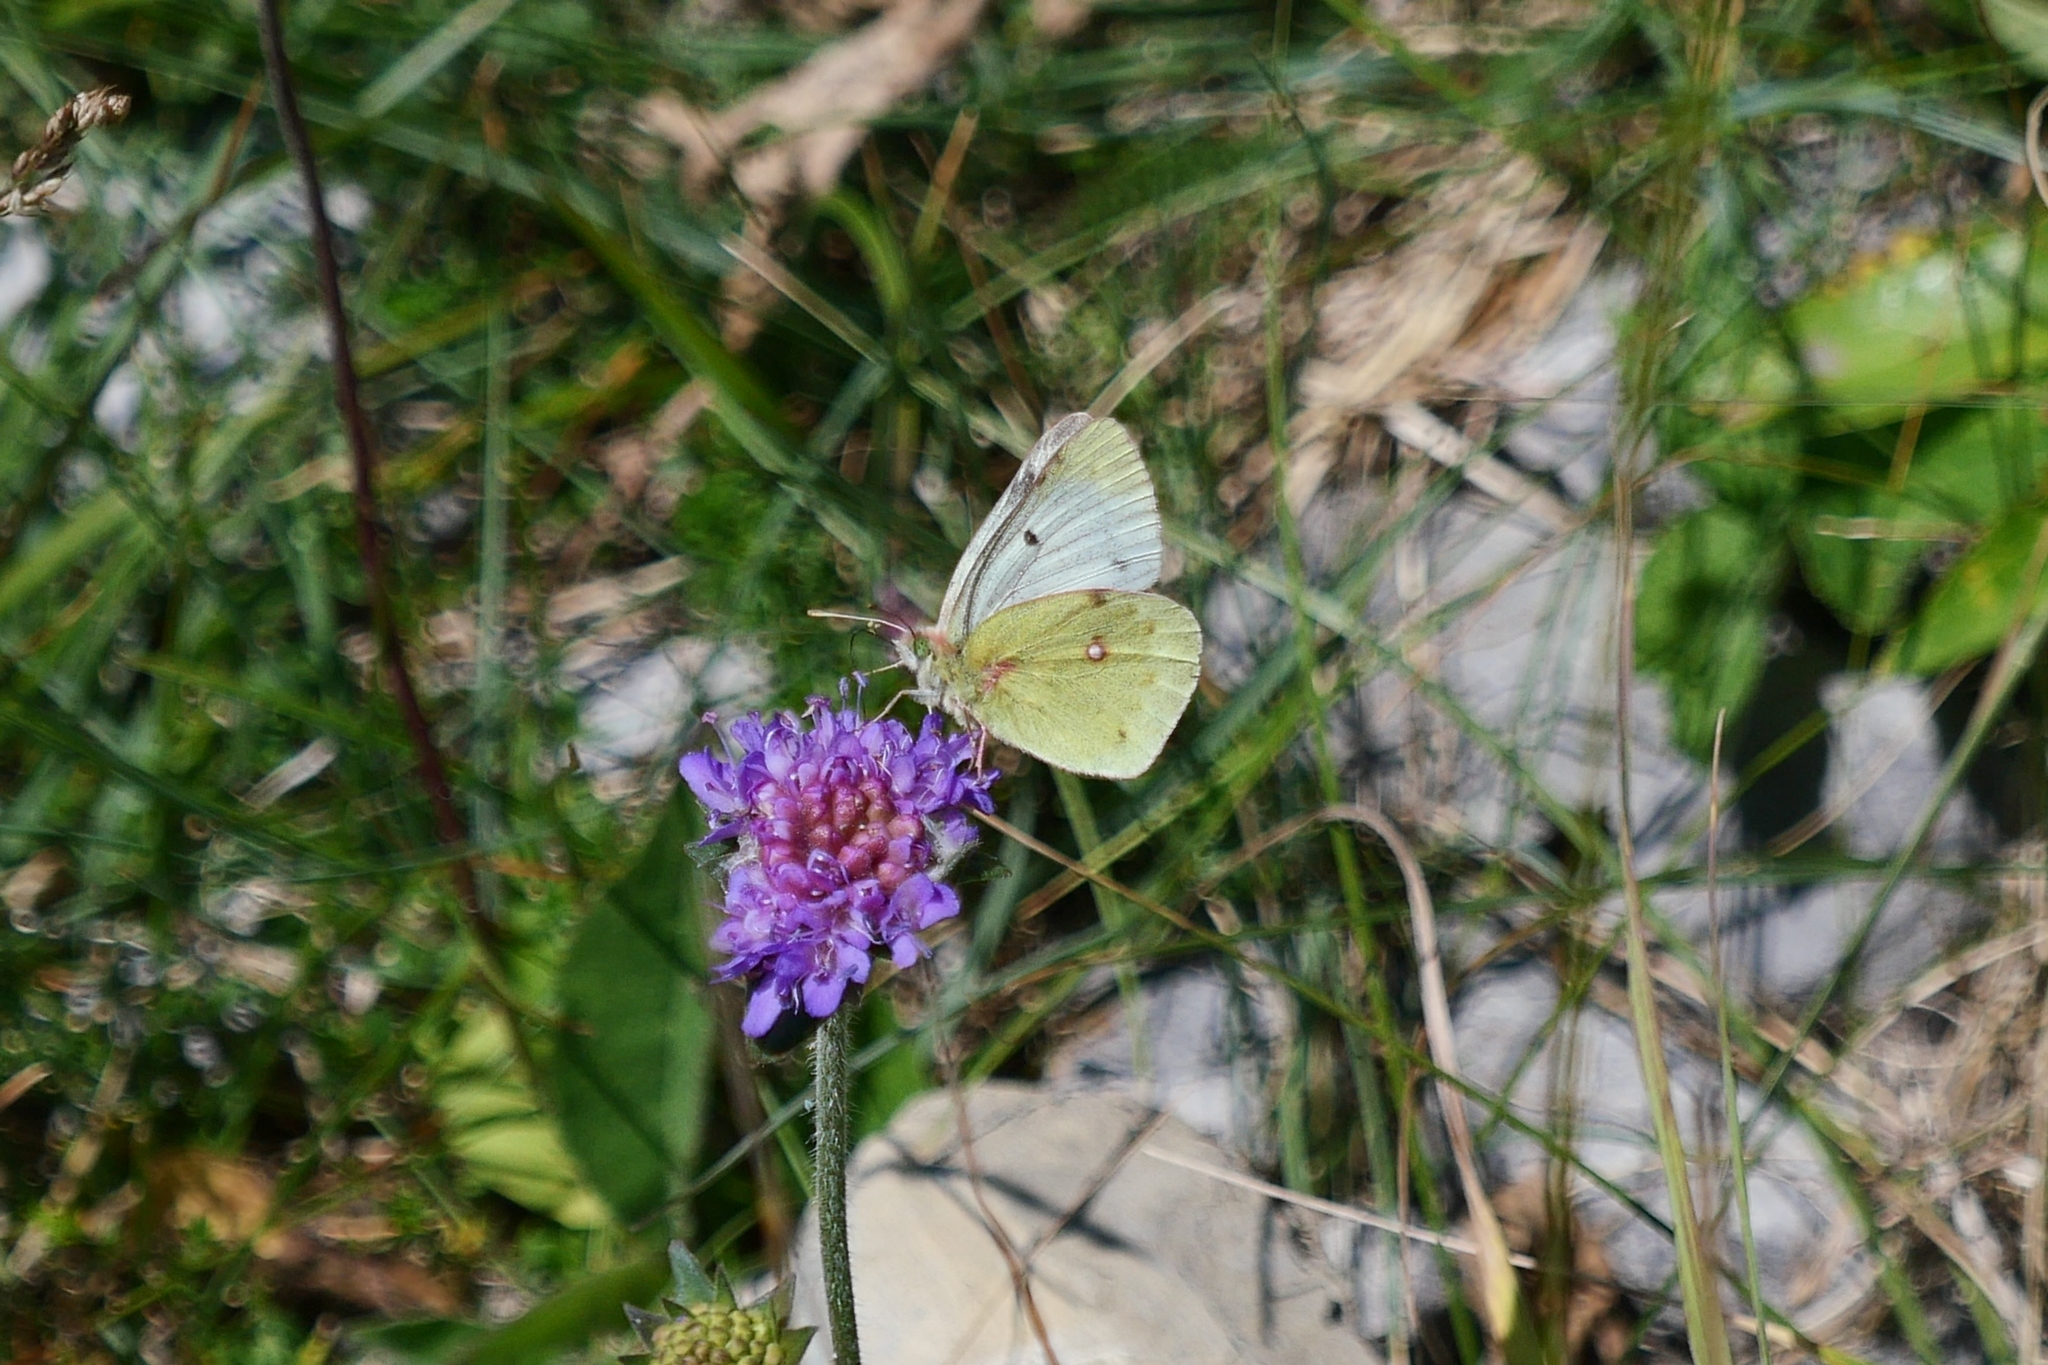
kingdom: Animalia
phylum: Arthropoda
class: Insecta
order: Lepidoptera
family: Pieridae
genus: Colias
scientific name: Colias phicomone
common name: Mountain clouded yellow
